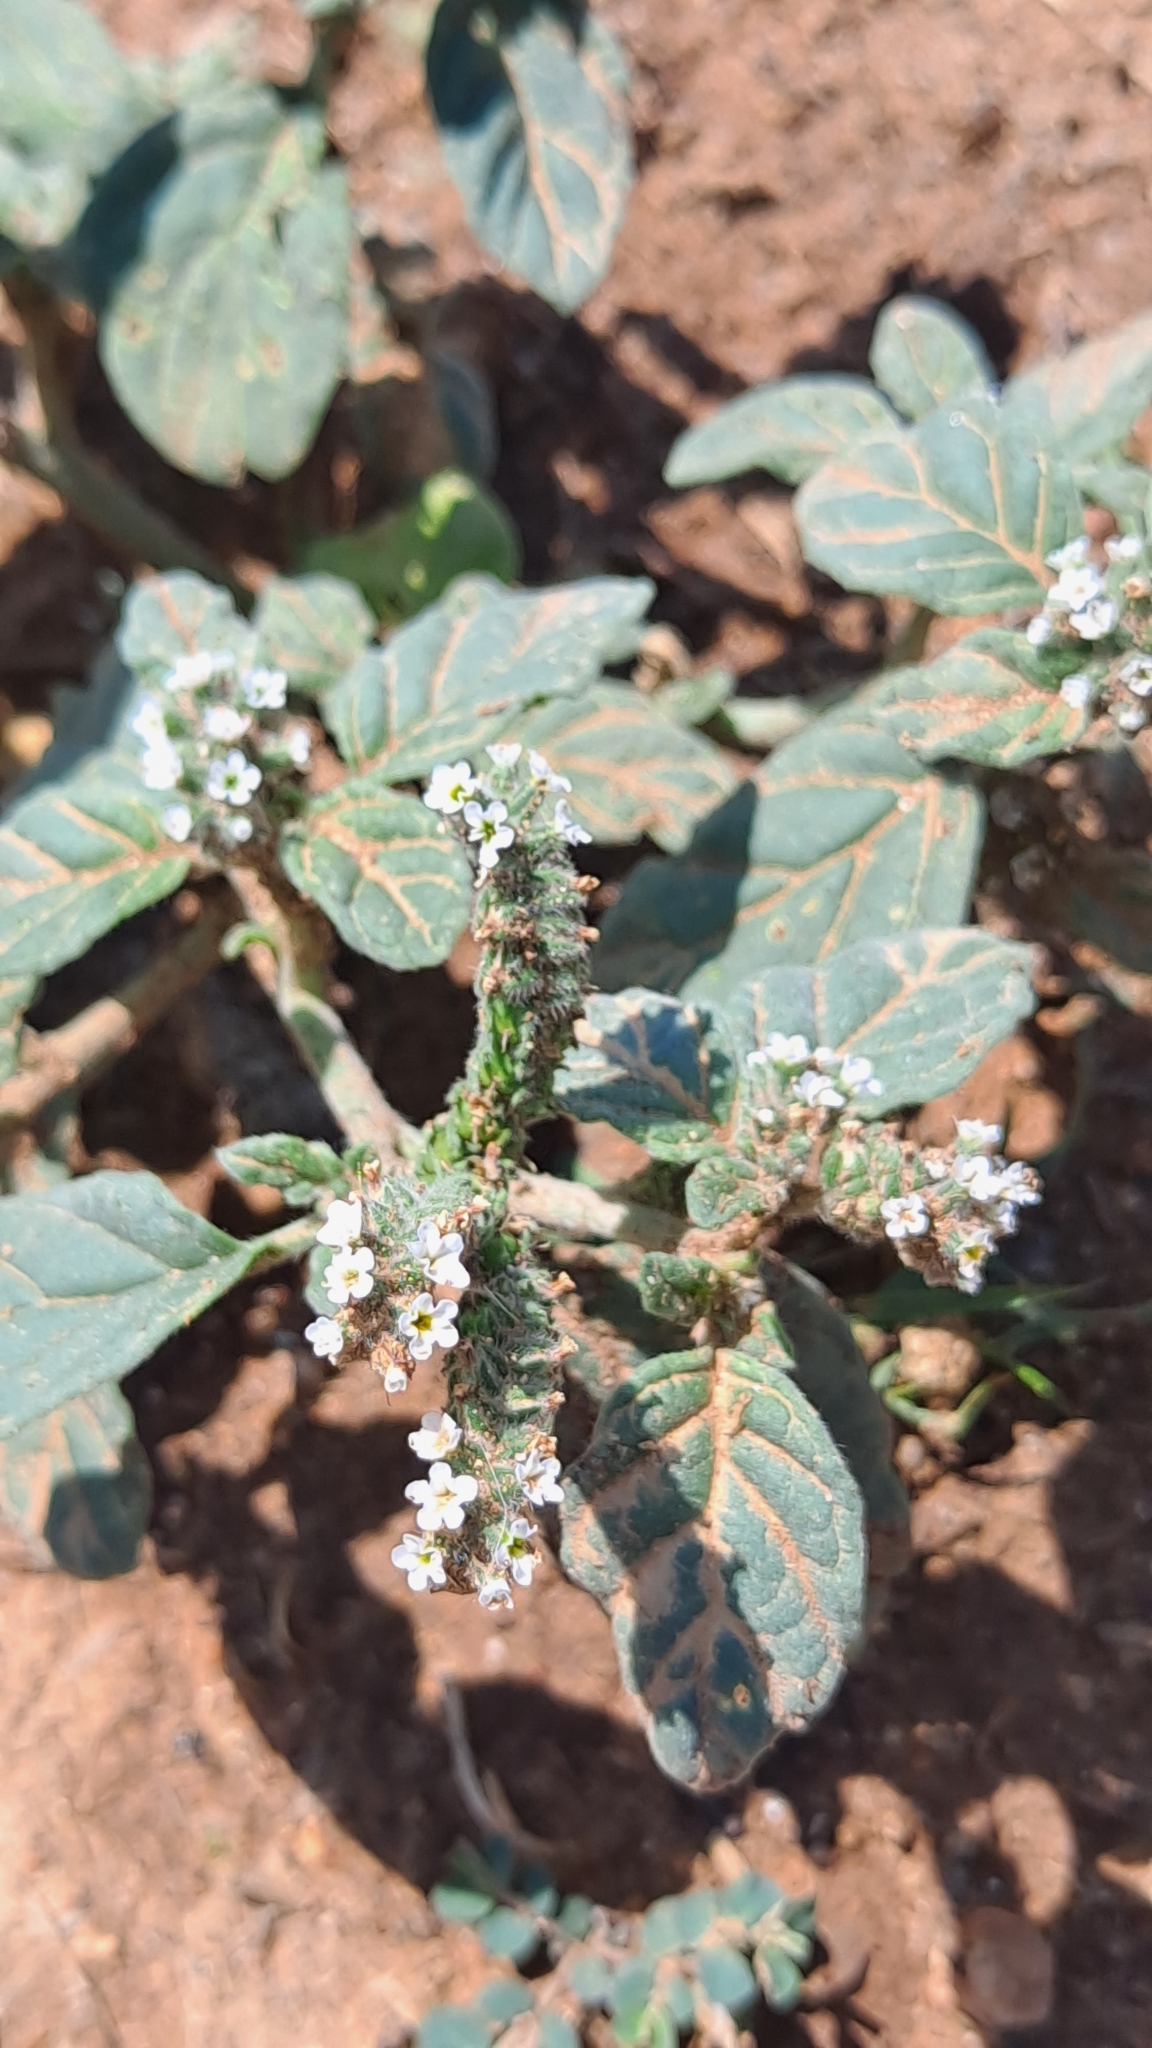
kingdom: Plantae
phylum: Tracheophyta
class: Magnoliopsida
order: Boraginales
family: Heliotropiaceae
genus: Heliotropium
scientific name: Heliotropium europaeum
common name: European heliotrope
